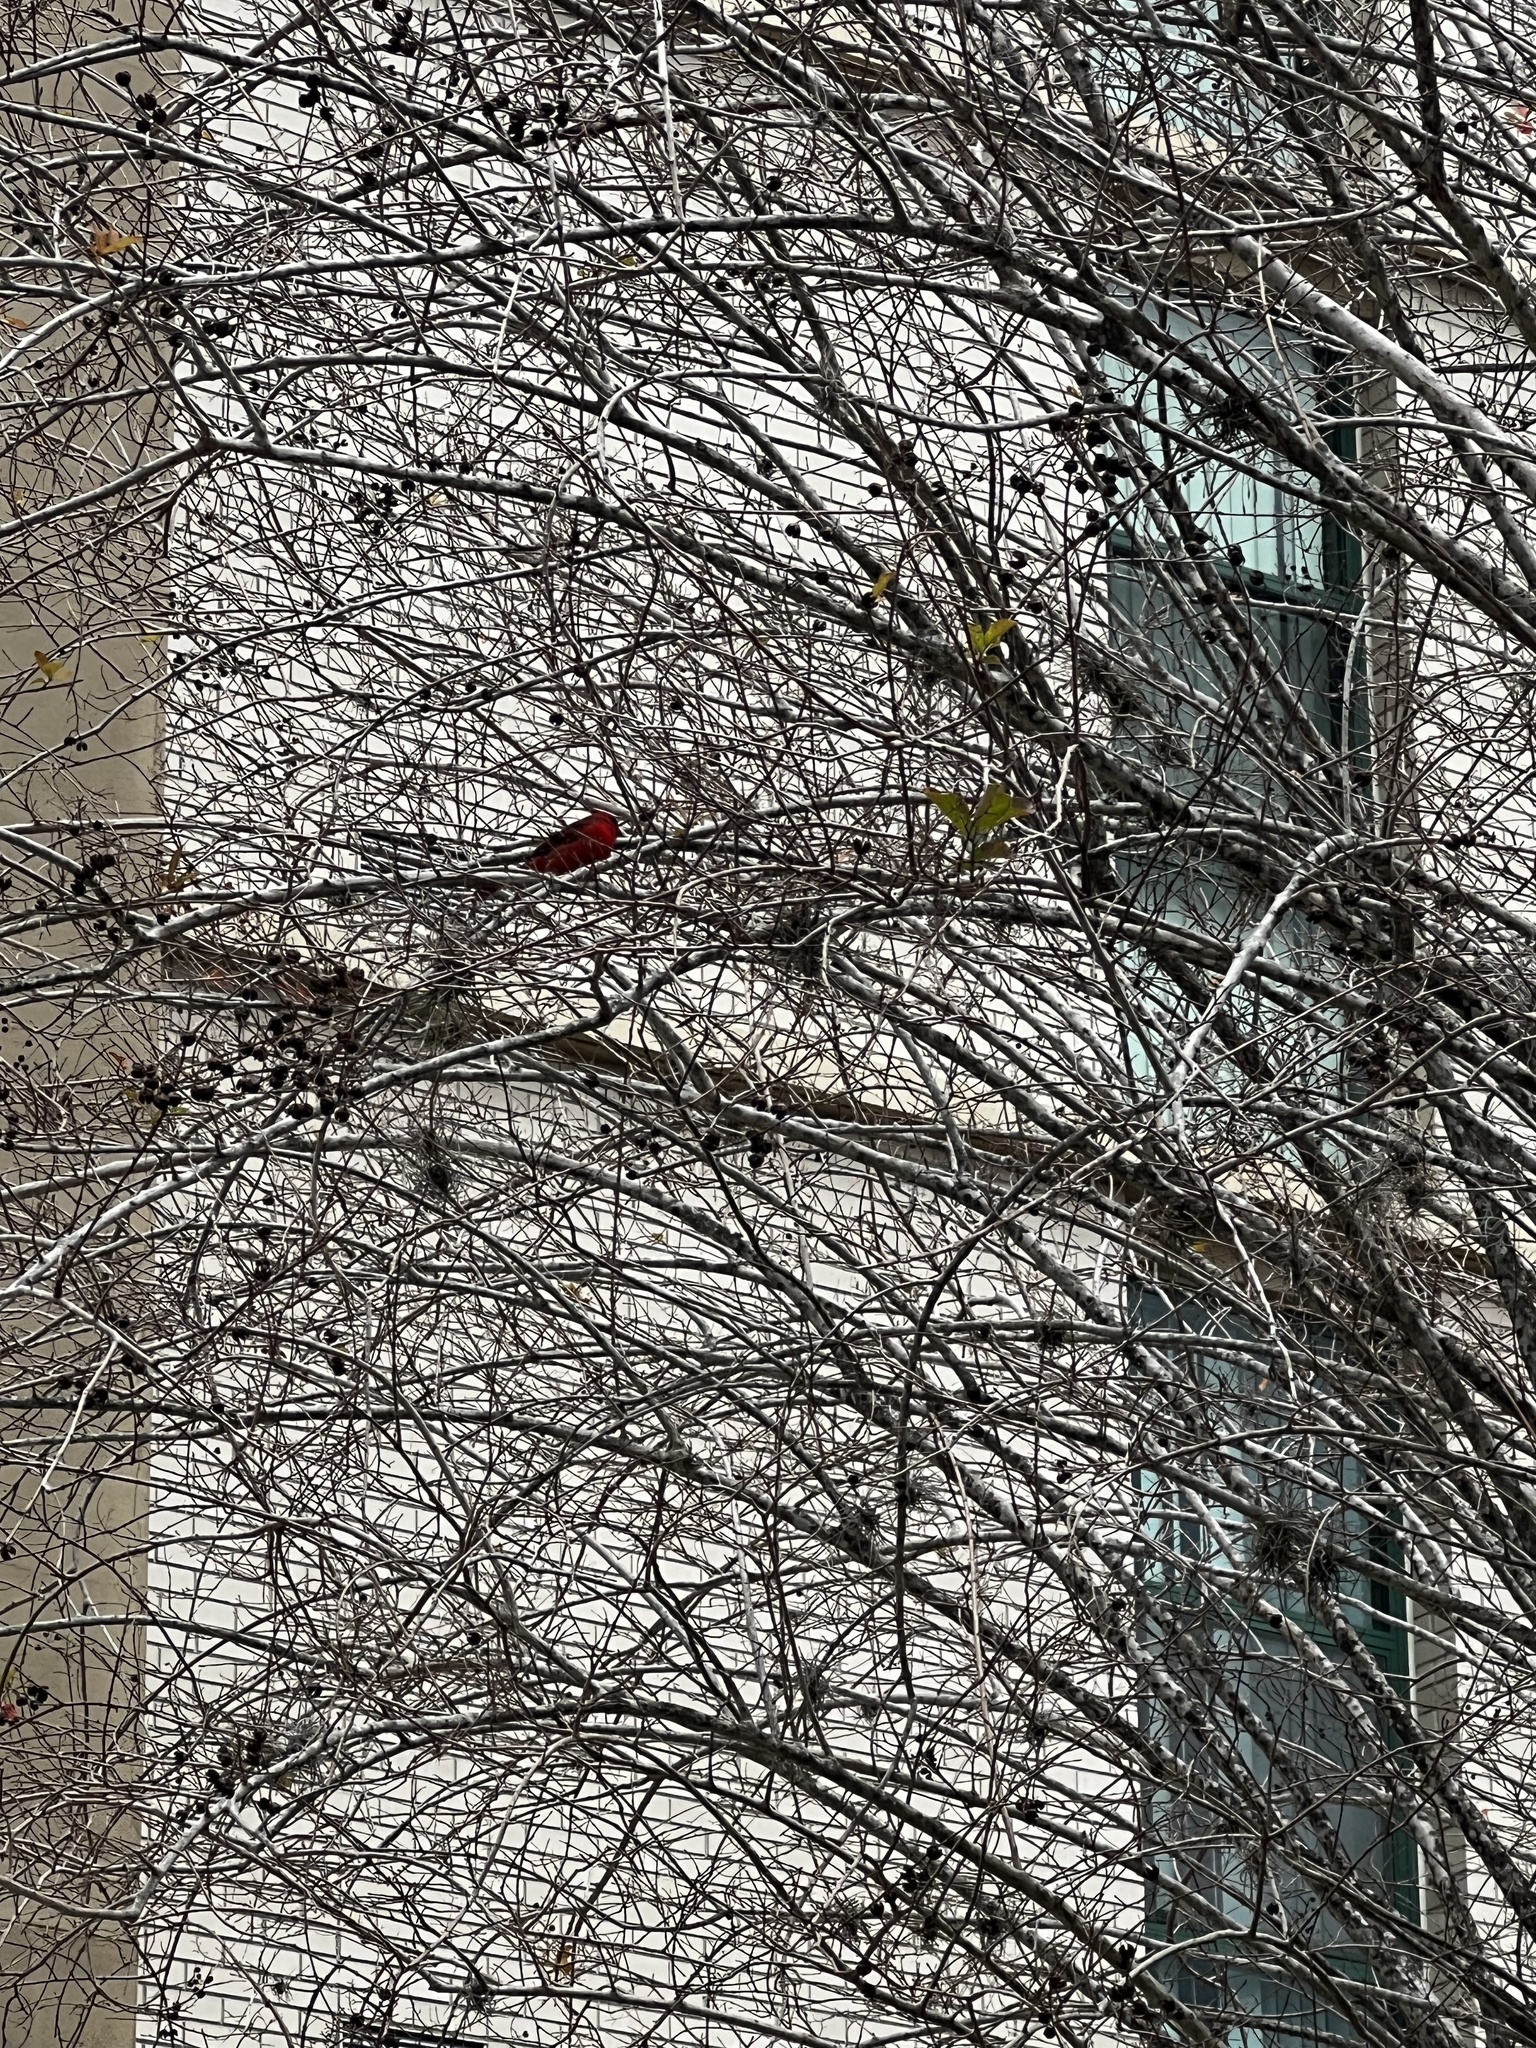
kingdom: Animalia
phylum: Chordata
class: Aves
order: Passeriformes
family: Cardinalidae
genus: Cardinalis
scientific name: Cardinalis cardinalis
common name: Northern cardinal
